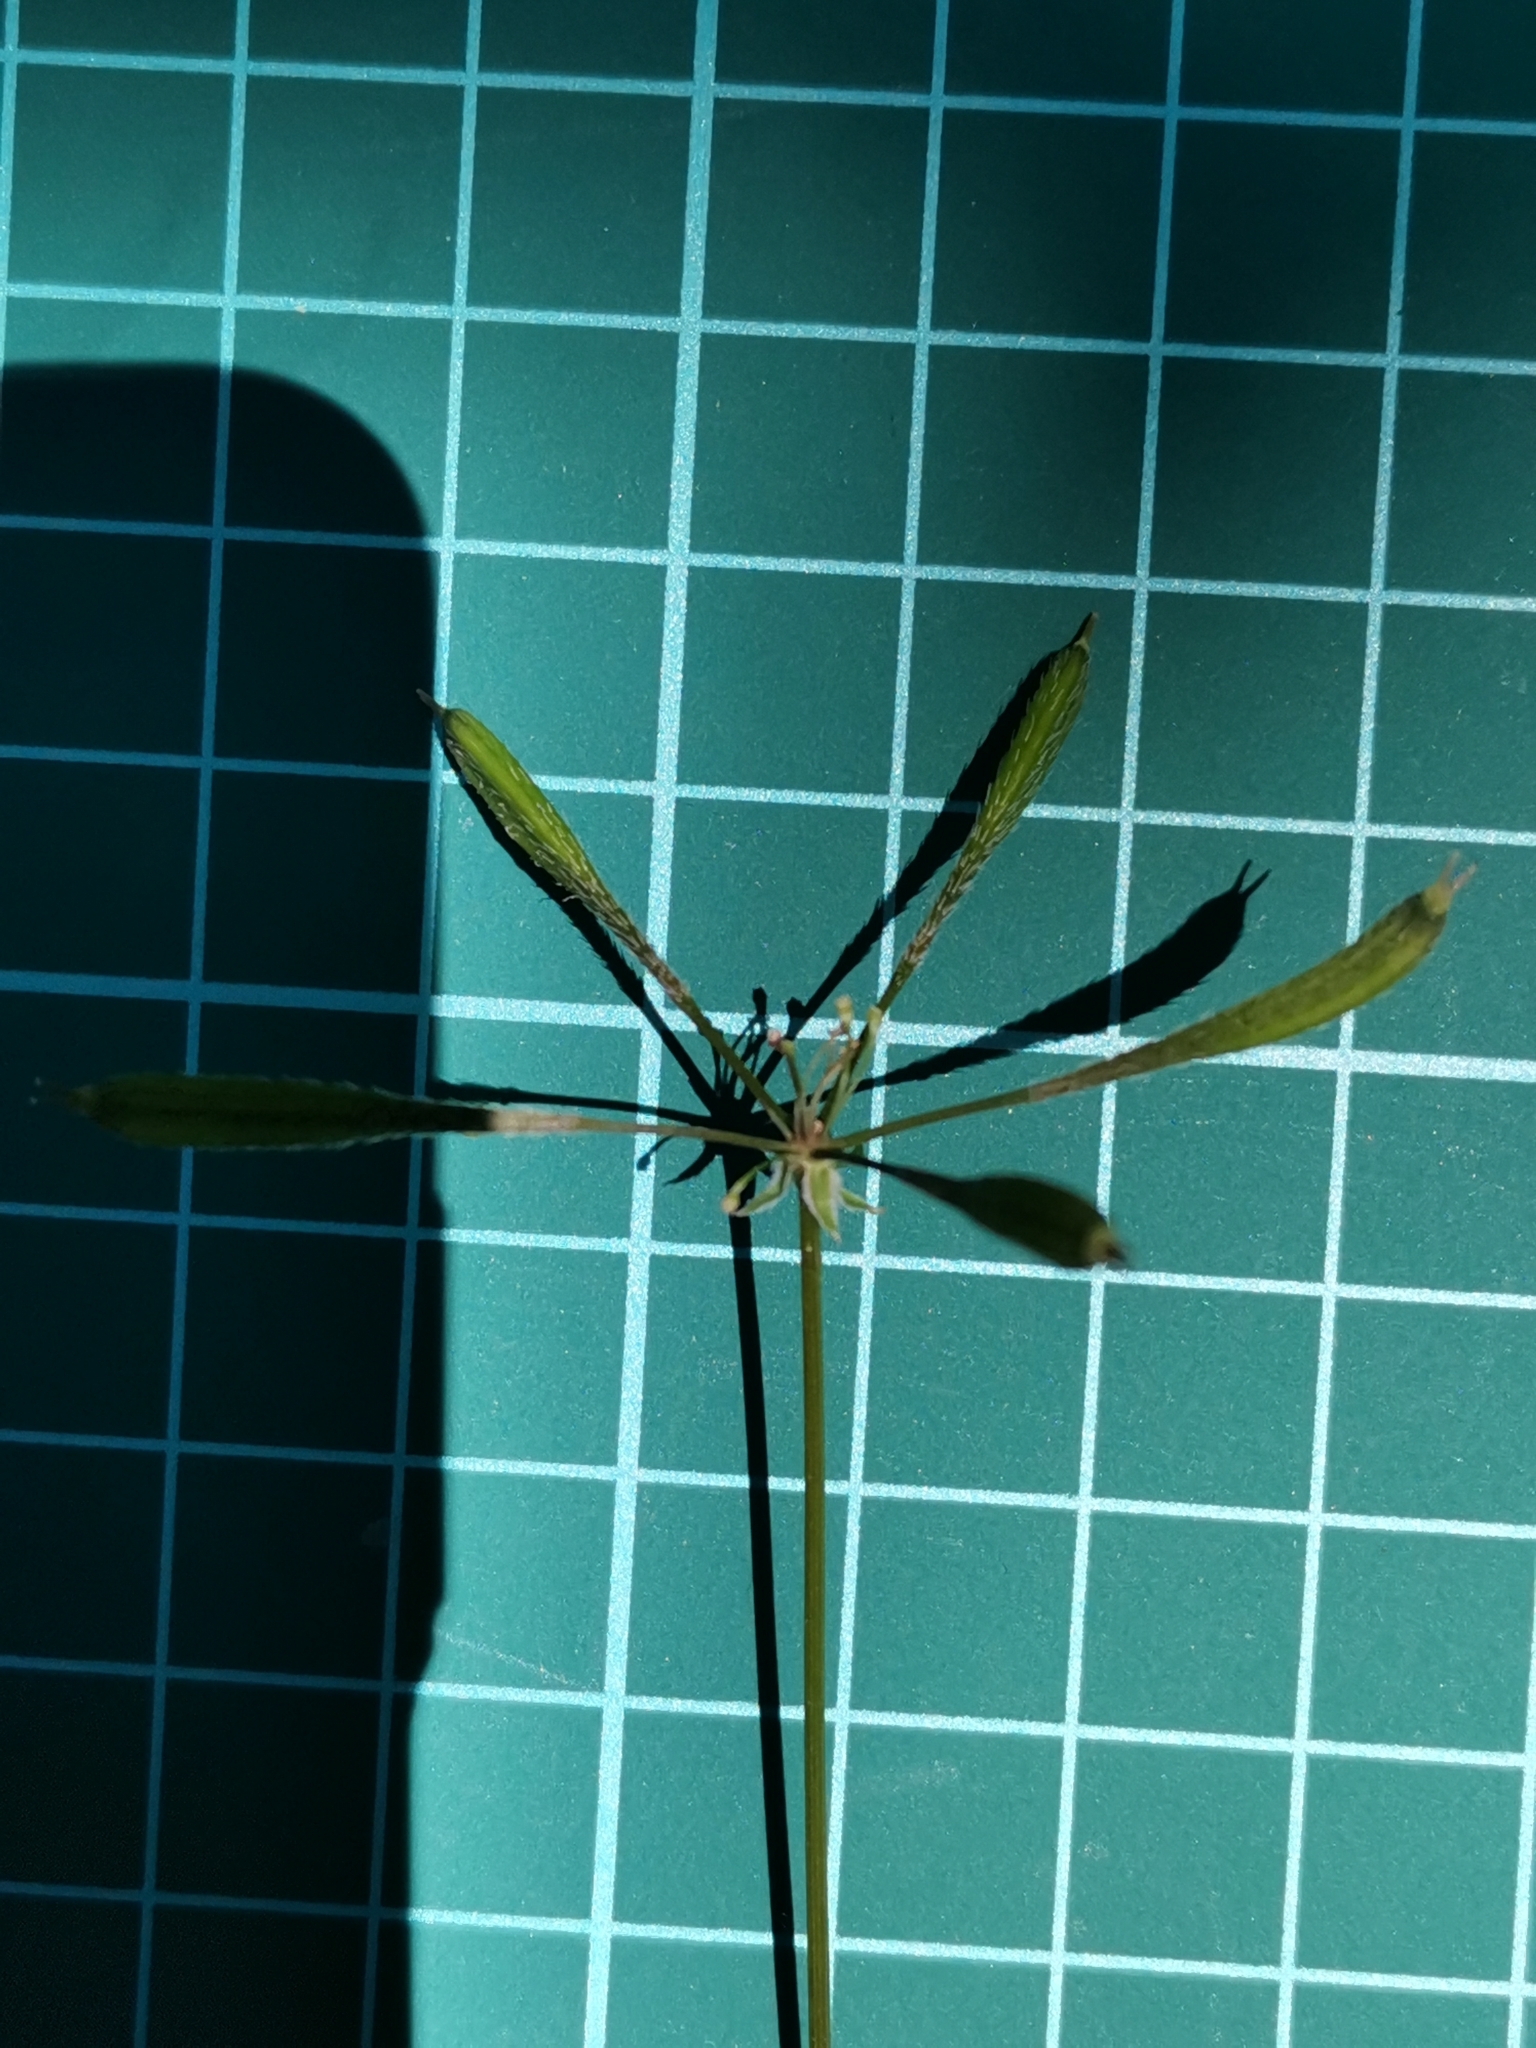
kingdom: Plantae
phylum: Tracheophyta
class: Magnoliopsida
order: Apiales
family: Apiaceae
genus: Osmorhiza
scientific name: Osmorhiza aristata
